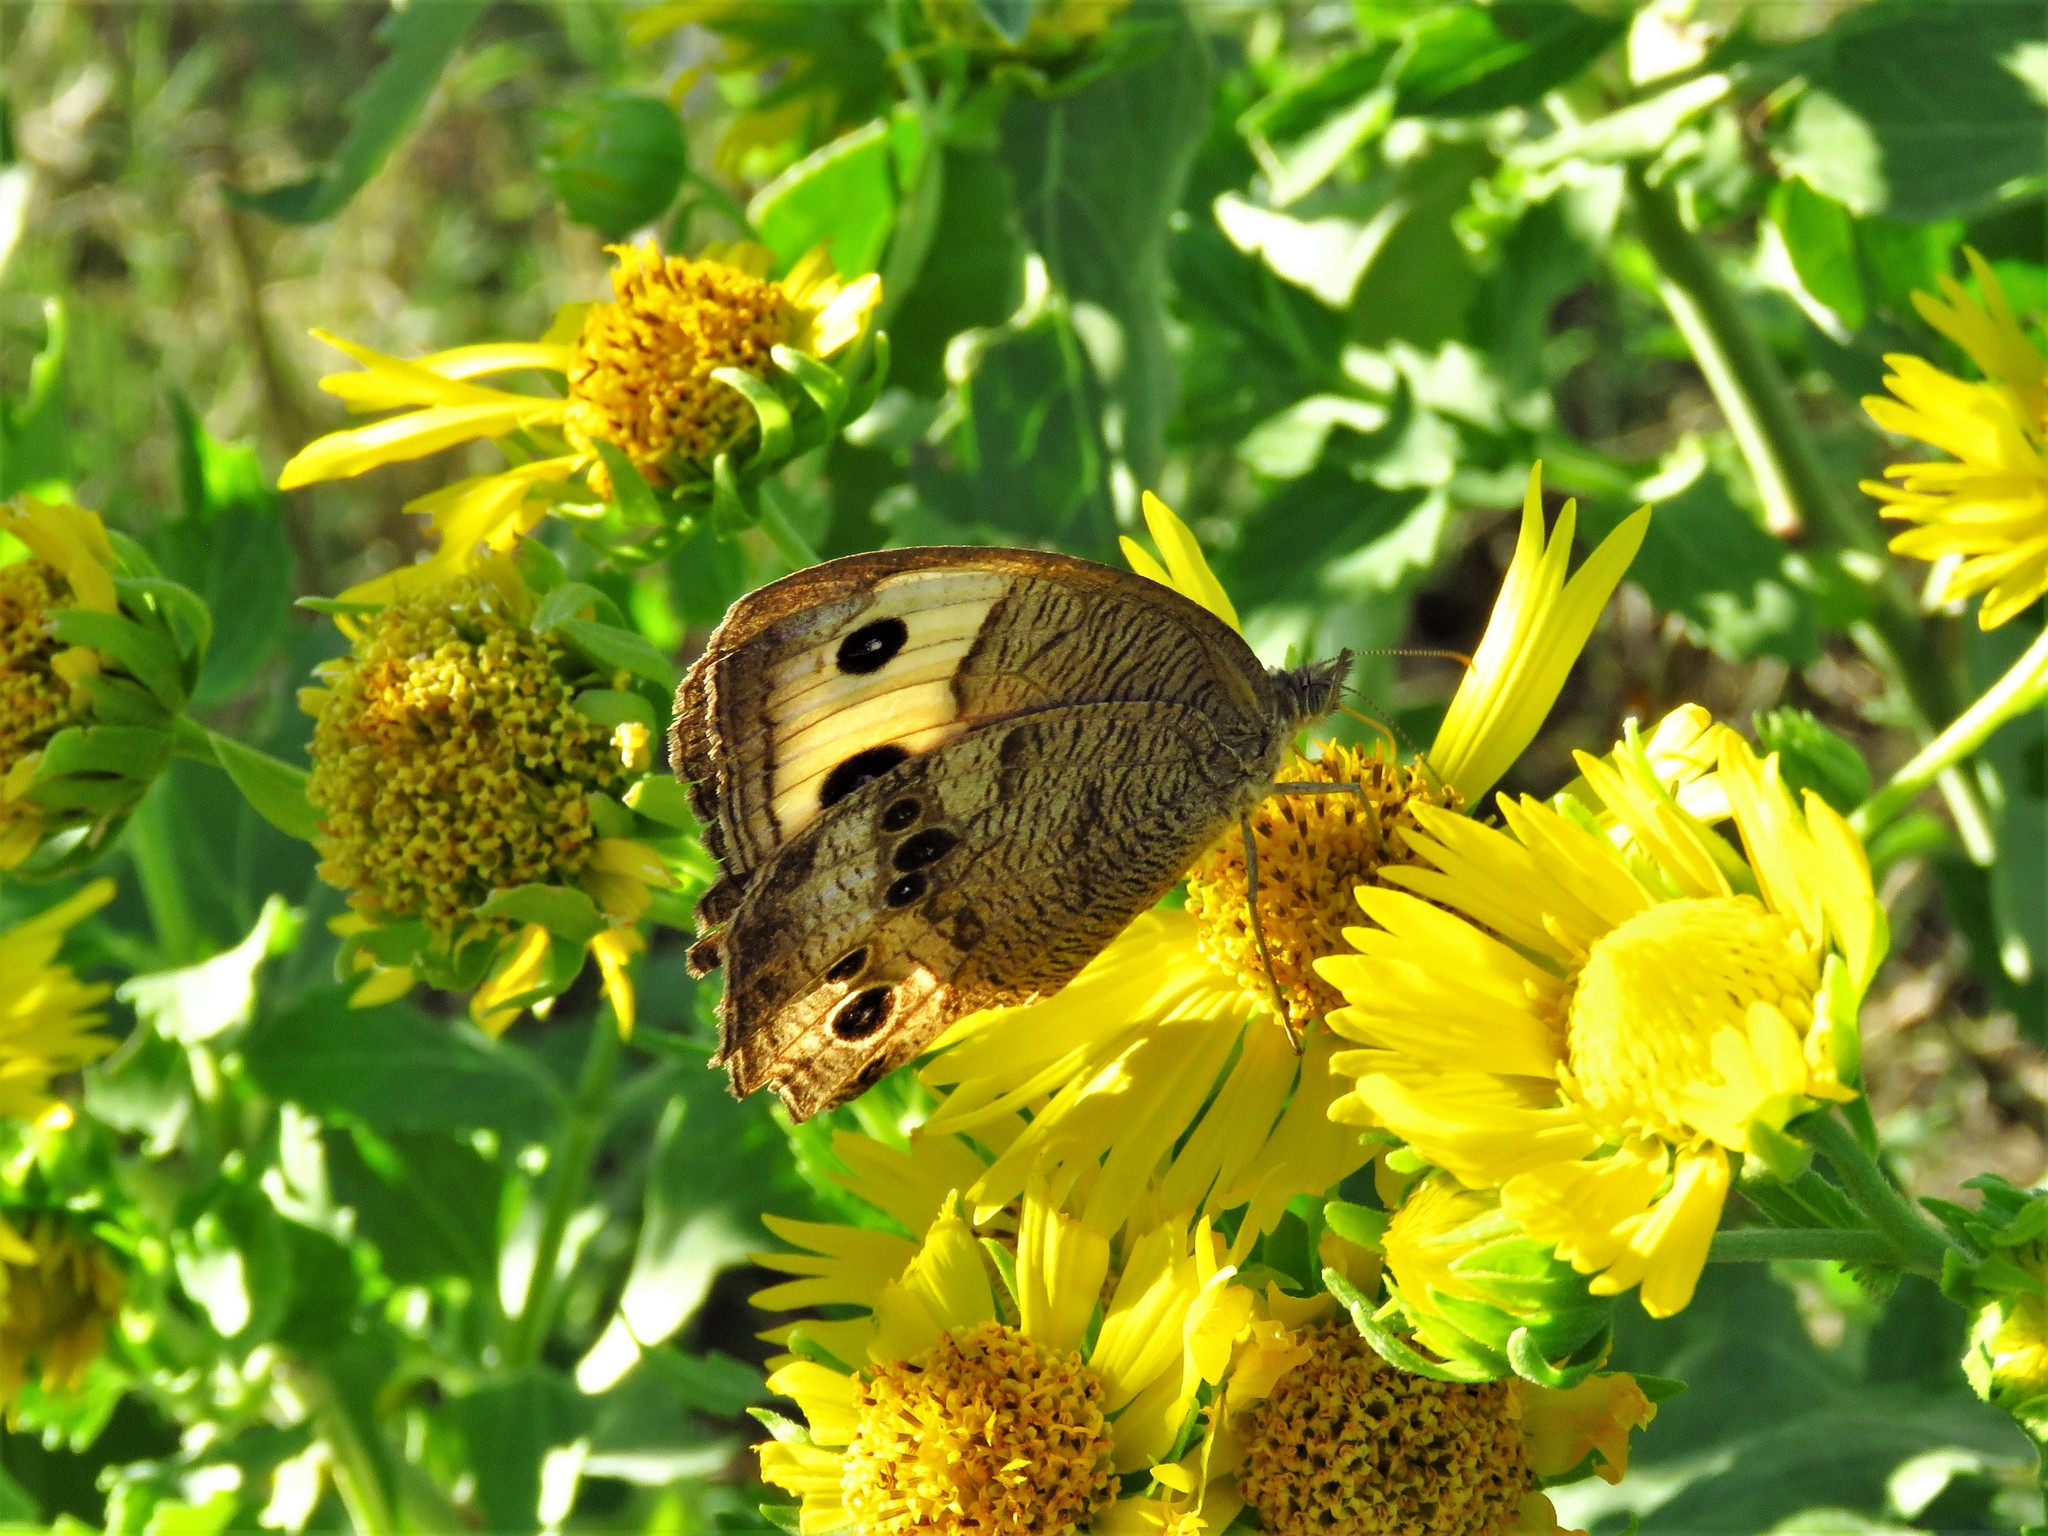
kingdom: Animalia
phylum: Arthropoda
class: Insecta
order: Lepidoptera
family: Nymphalidae
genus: Cercyonis
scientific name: Cercyonis pegala
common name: Common wood-nymph
